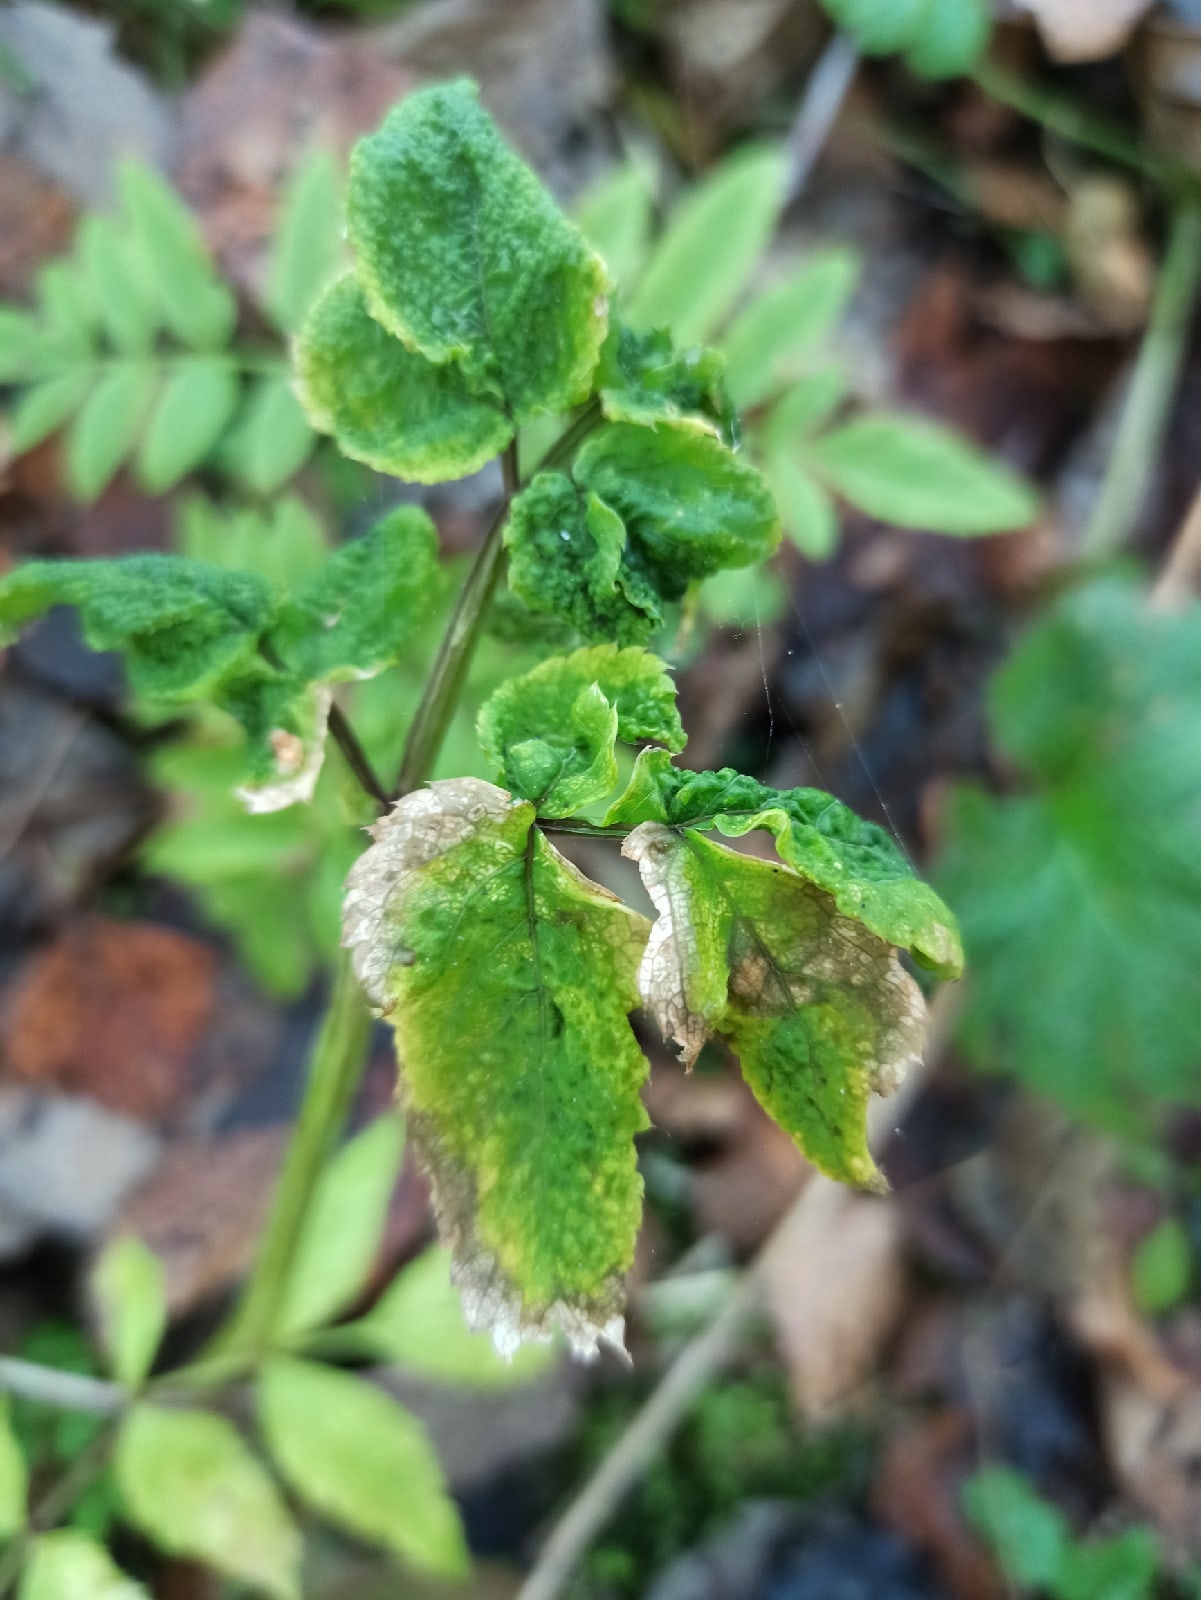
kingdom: Plantae
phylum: Tracheophyta
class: Magnoliopsida
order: Apiales
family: Apiaceae
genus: Angelica
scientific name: Angelica sylvestris
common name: Wild angelica
